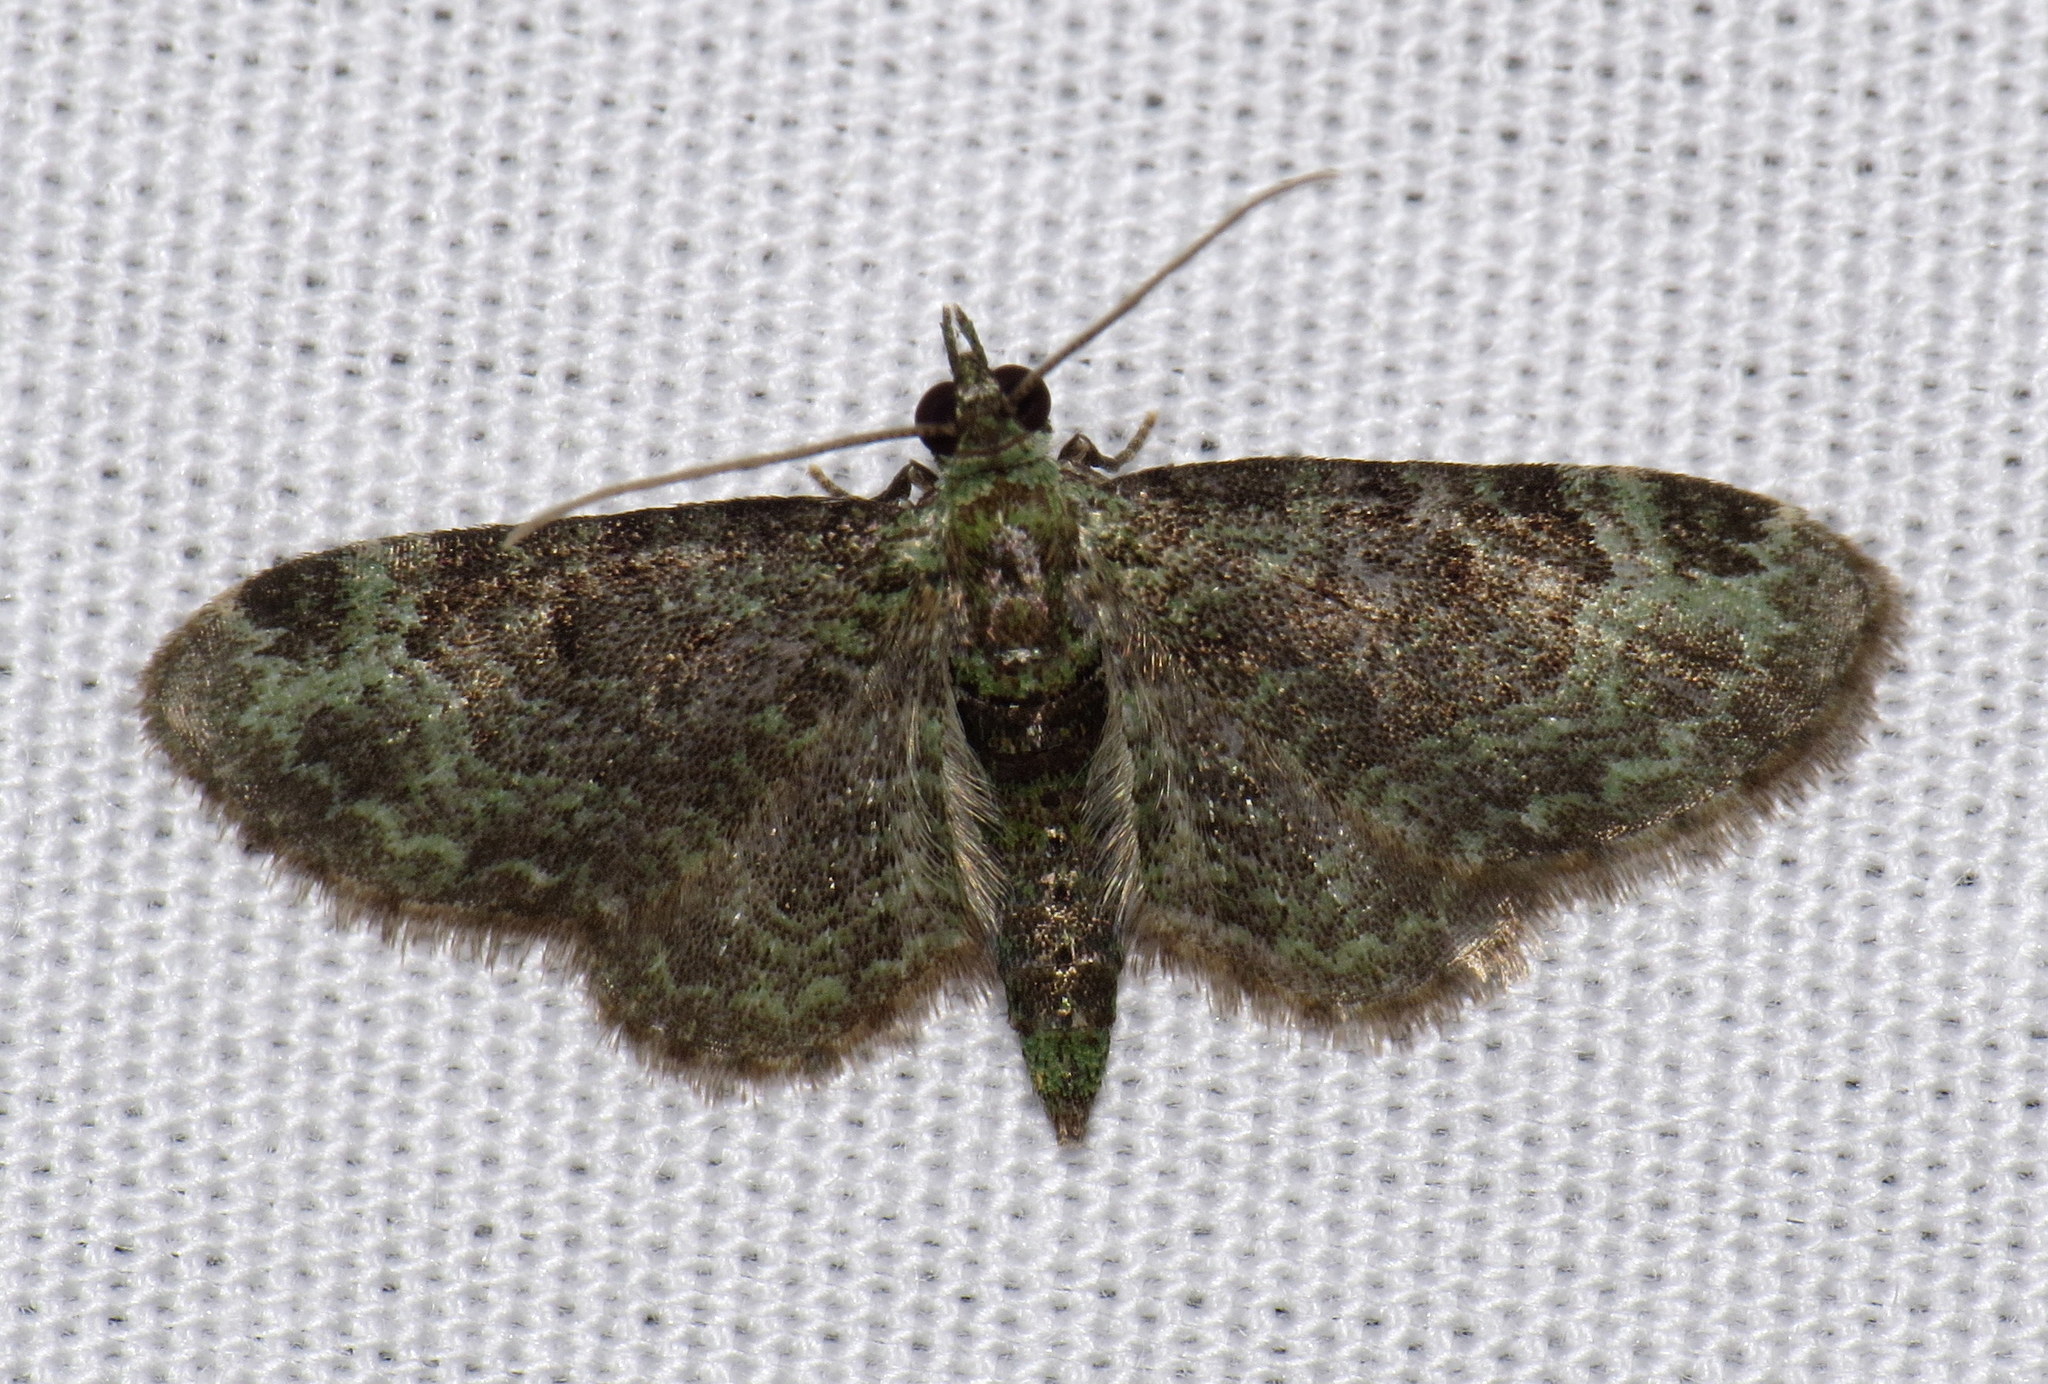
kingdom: Animalia
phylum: Arthropoda
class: Insecta
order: Lepidoptera
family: Geometridae
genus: Pasiphila
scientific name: Pasiphila rectangulata
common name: Green pug
